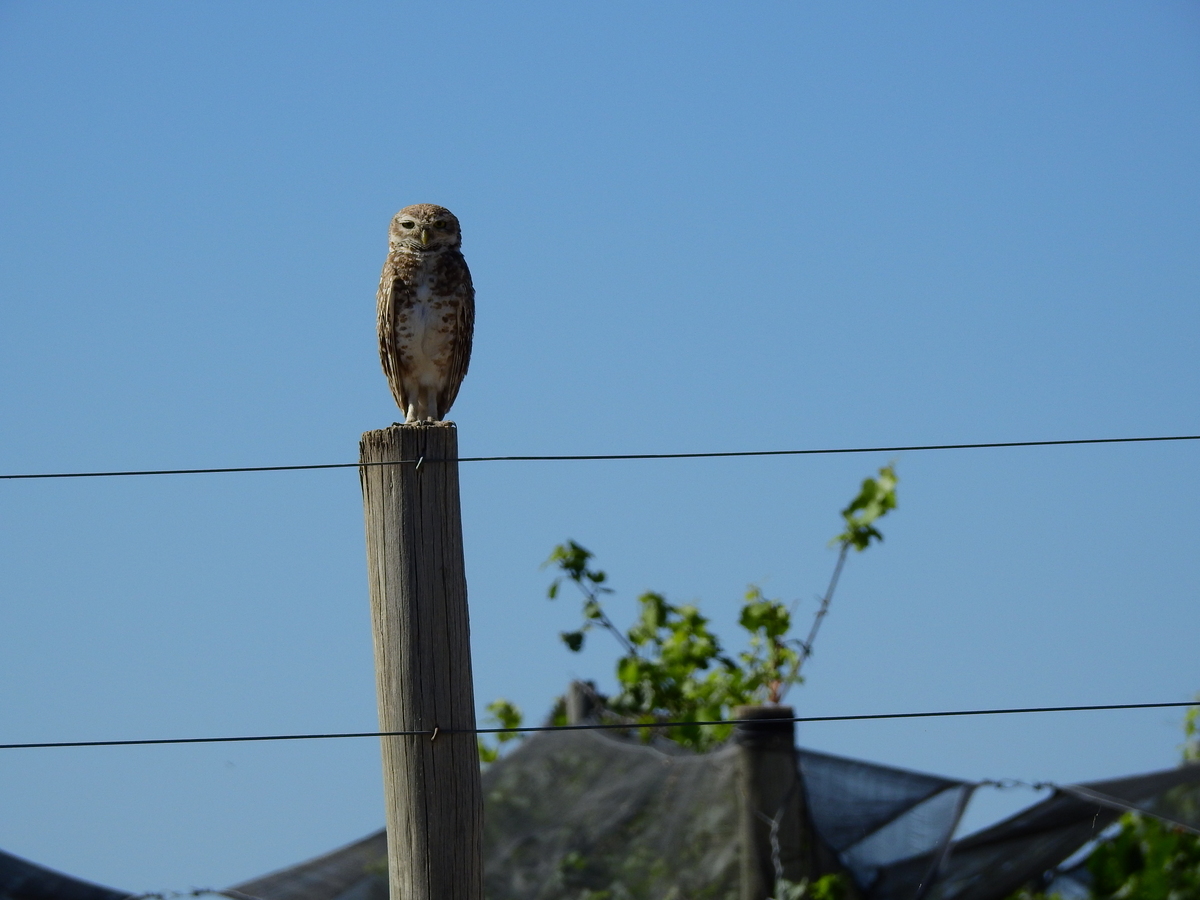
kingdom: Animalia
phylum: Chordata
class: Aves
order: Strigiformes
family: Strigidae
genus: Athene
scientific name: Athene cunicularia
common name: Burrowing owl
